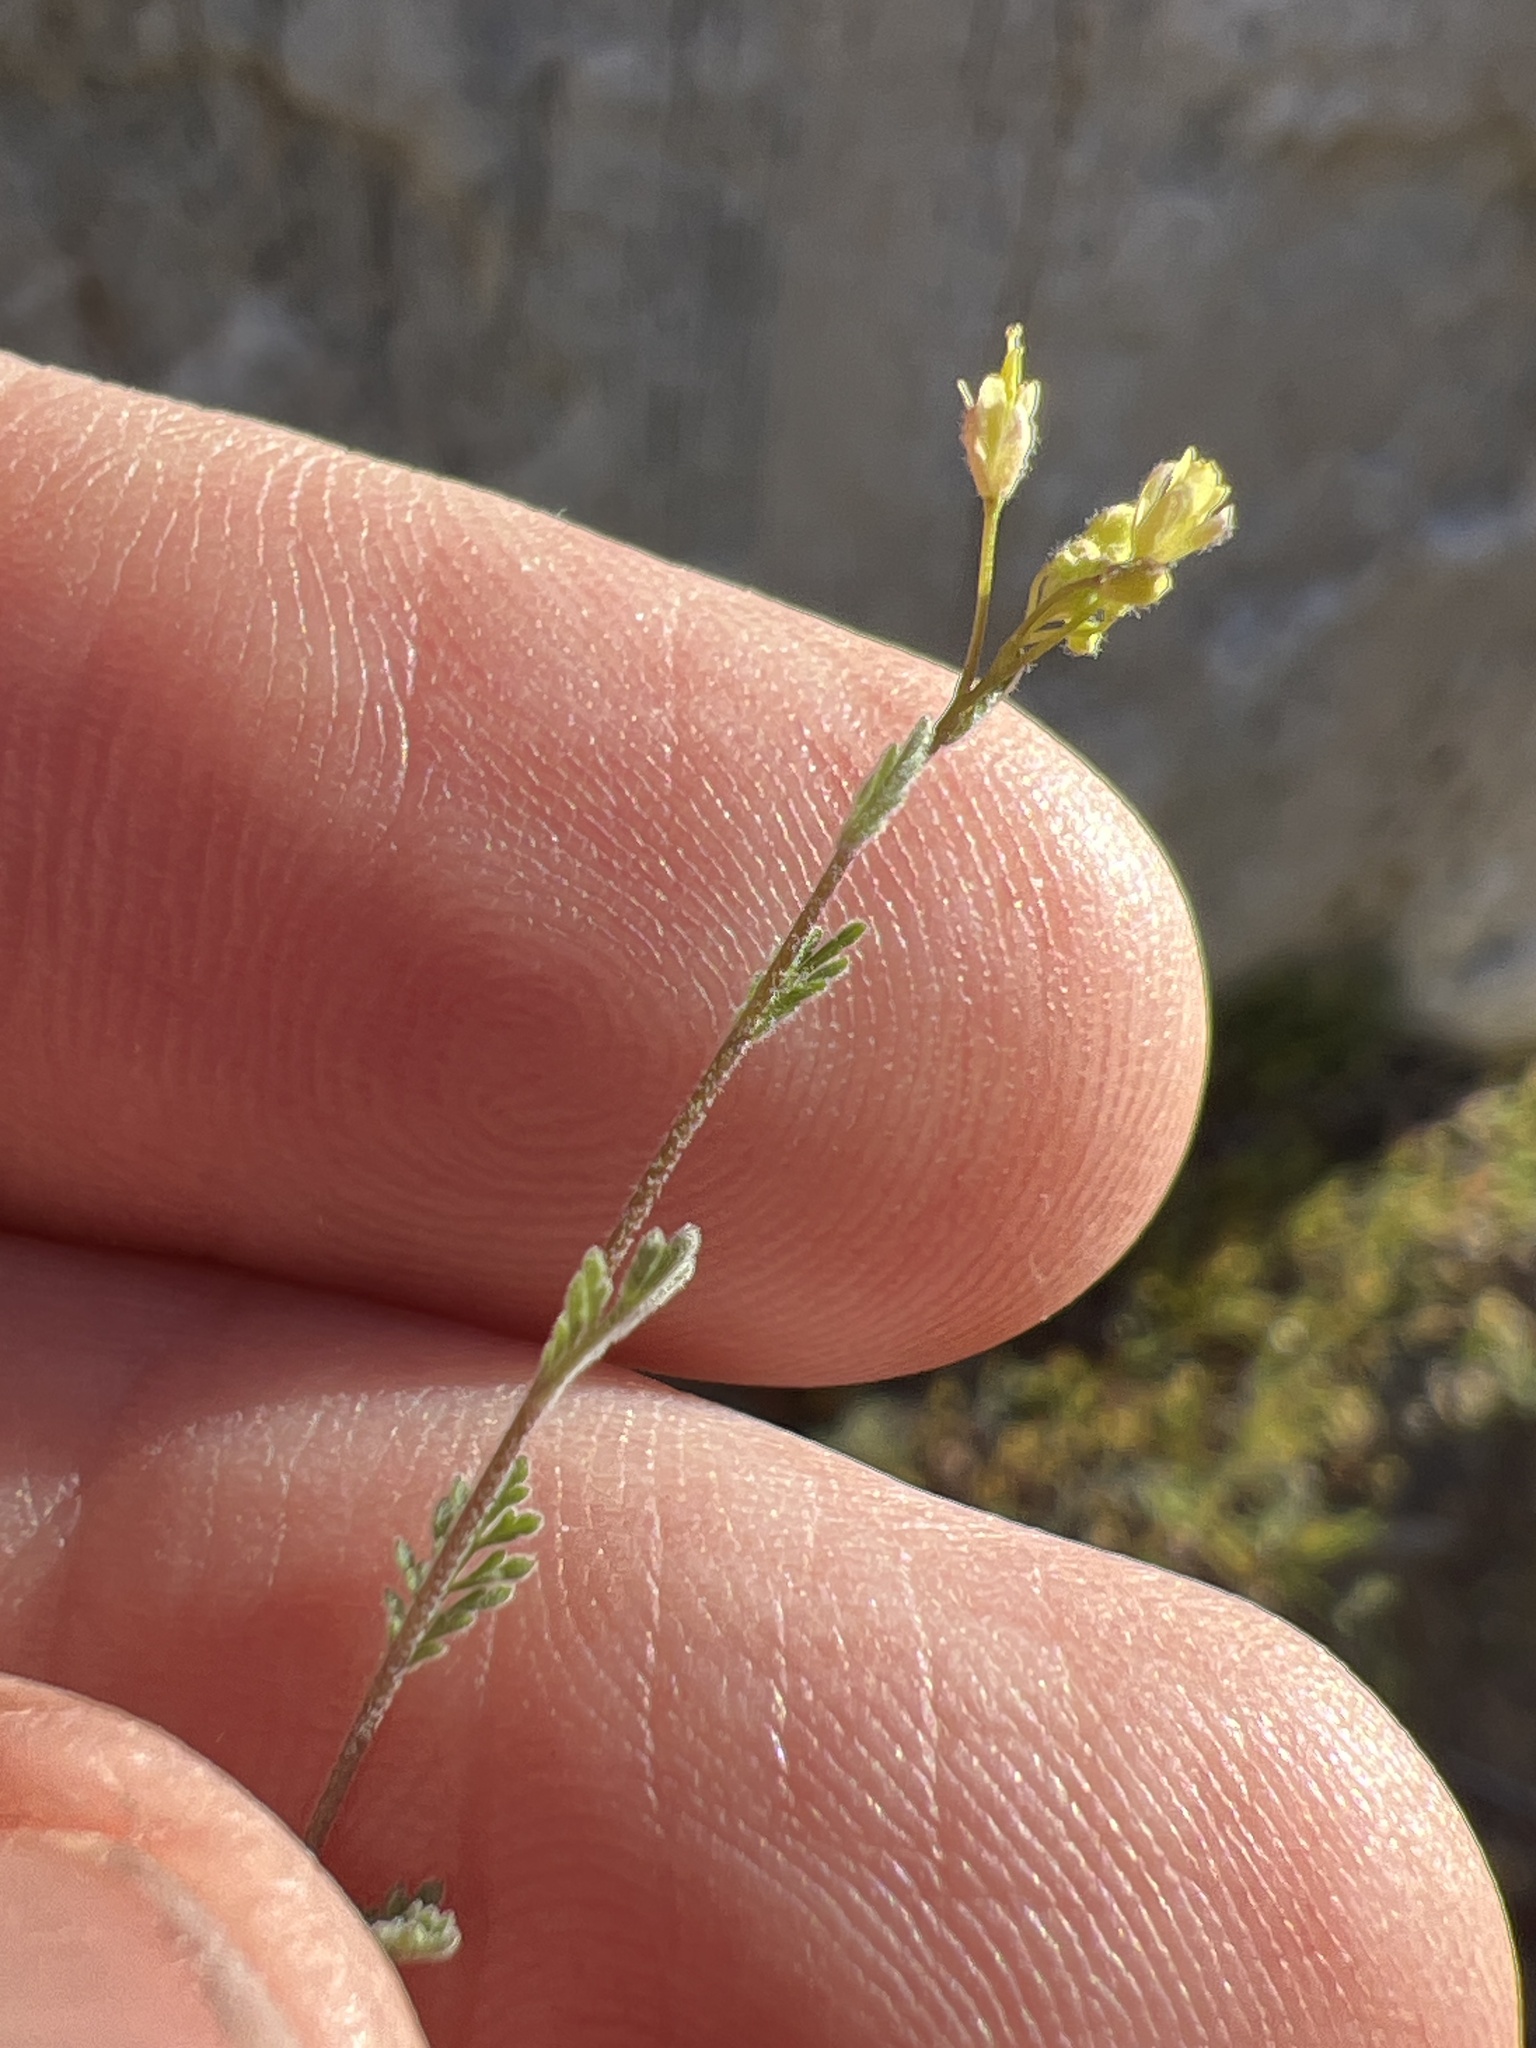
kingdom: Plantae
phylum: Tracheophyta
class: Magnoliopsida
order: Brassicales
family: Brassicaceae
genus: Descurainia
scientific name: Descurainia pinnata
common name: Western tansy mustard
